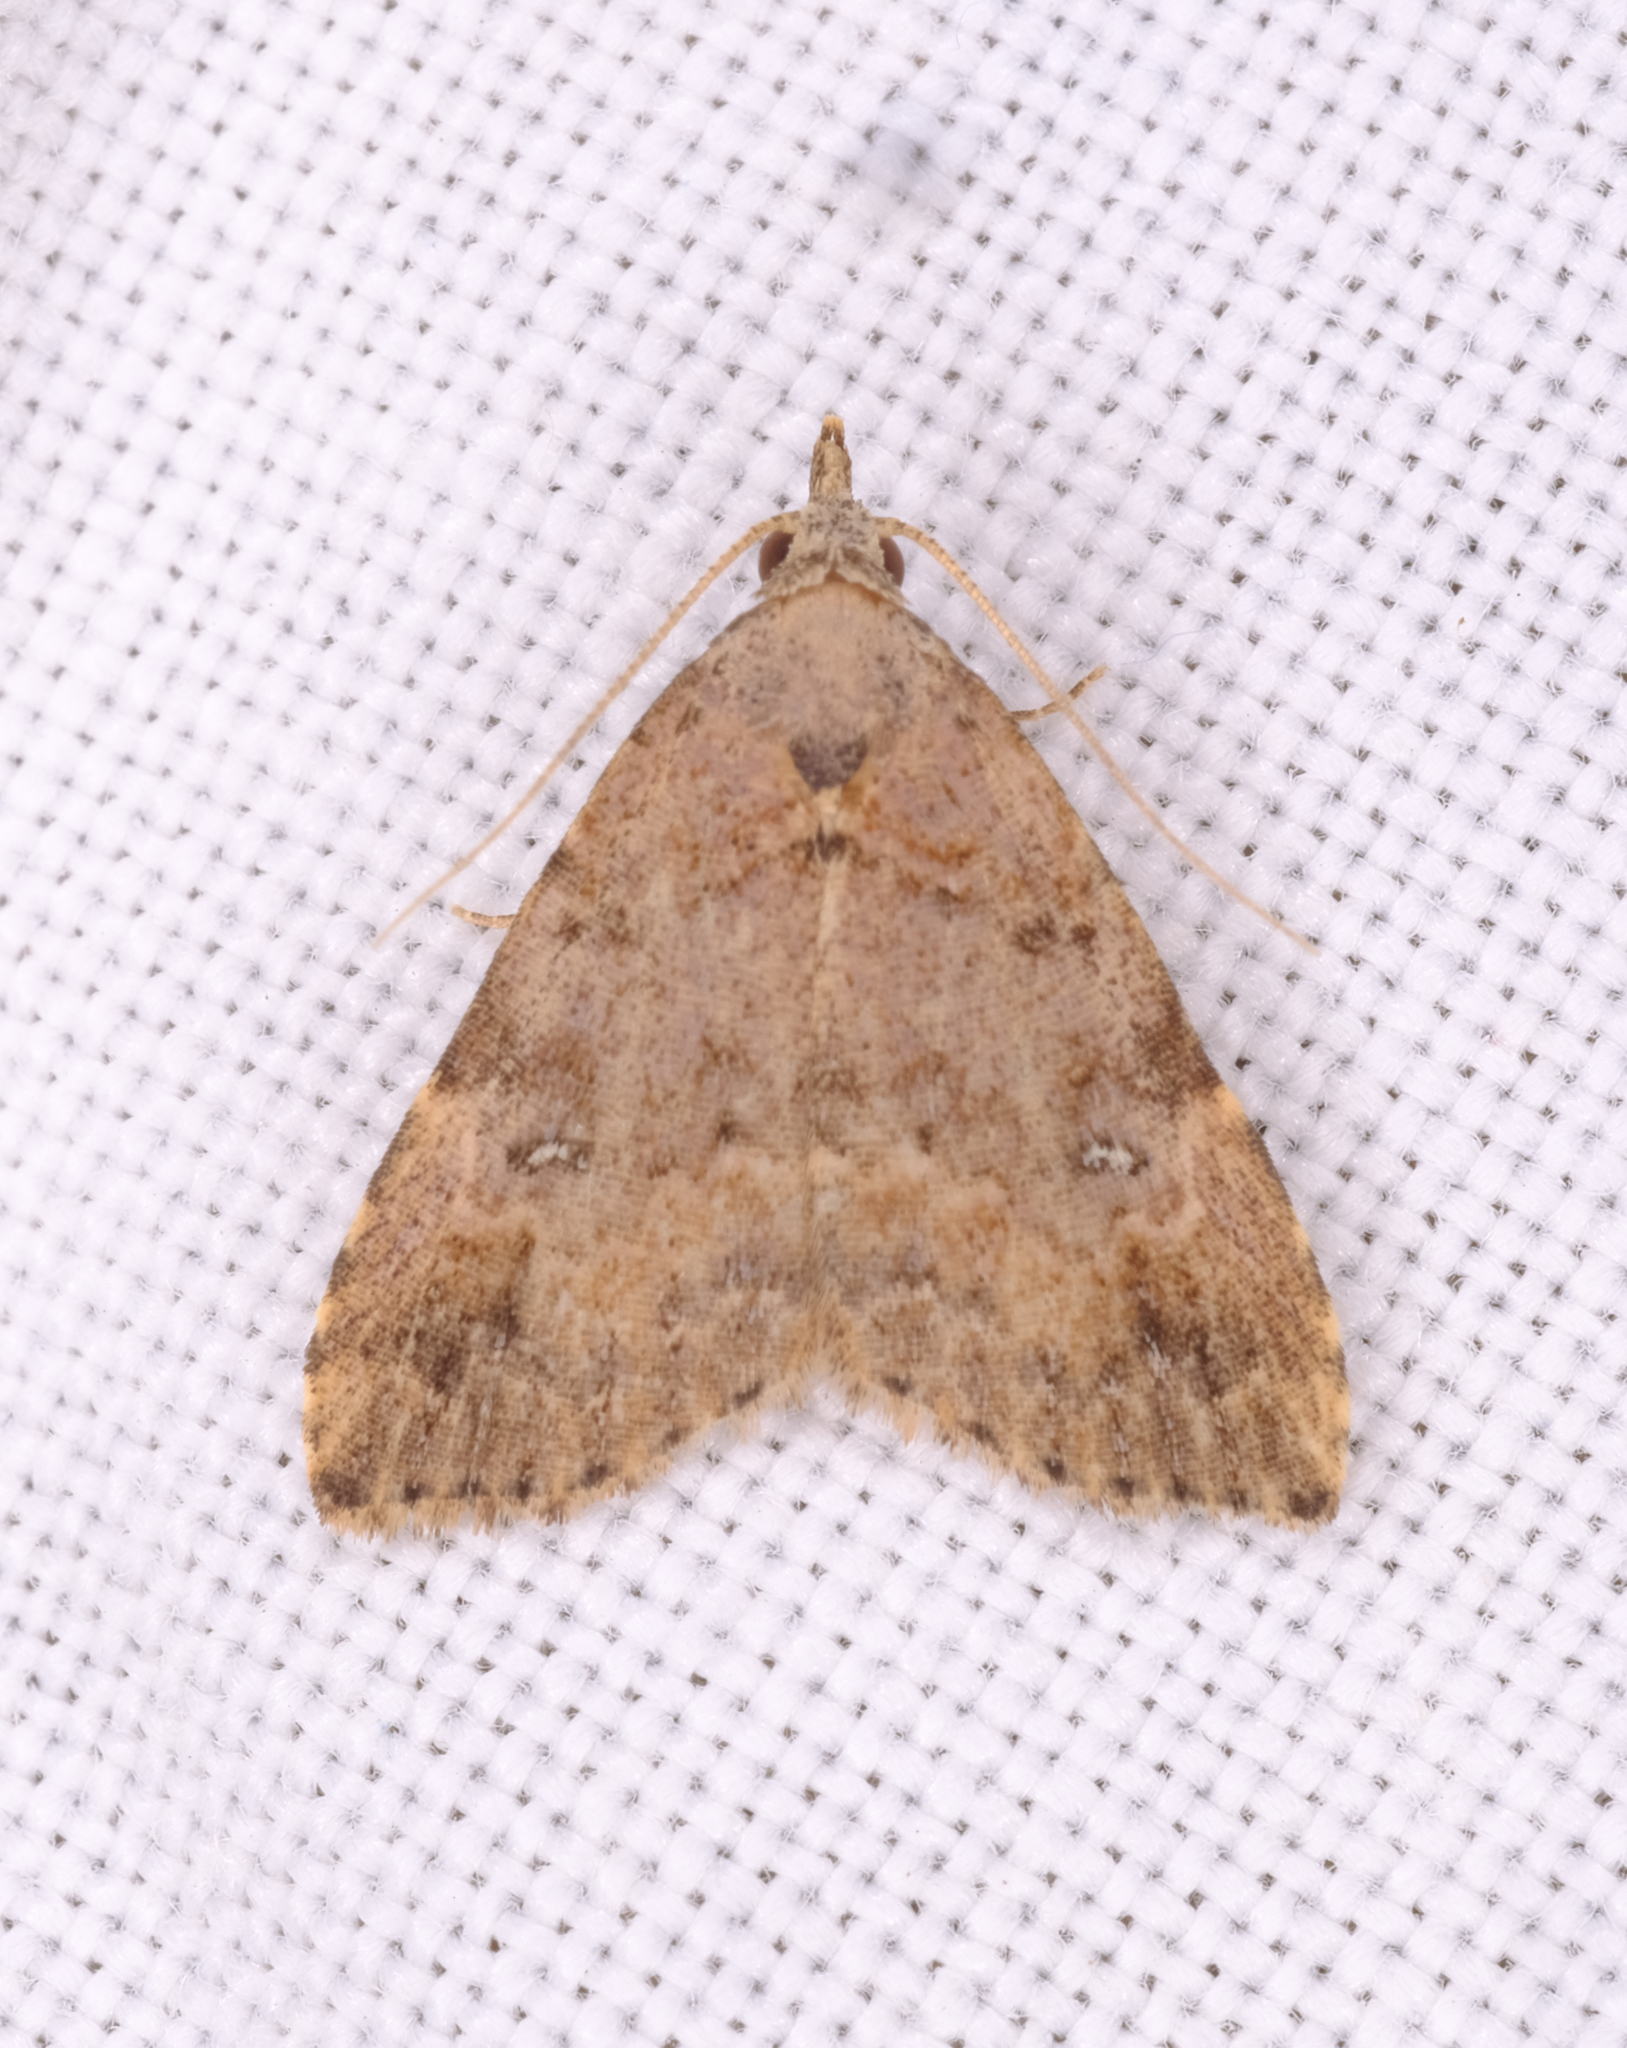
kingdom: Animalia
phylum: Arthropoda
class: Insecta
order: Lepidoptera
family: Erebidae
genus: Alapadna
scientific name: Alapadna pauropis
